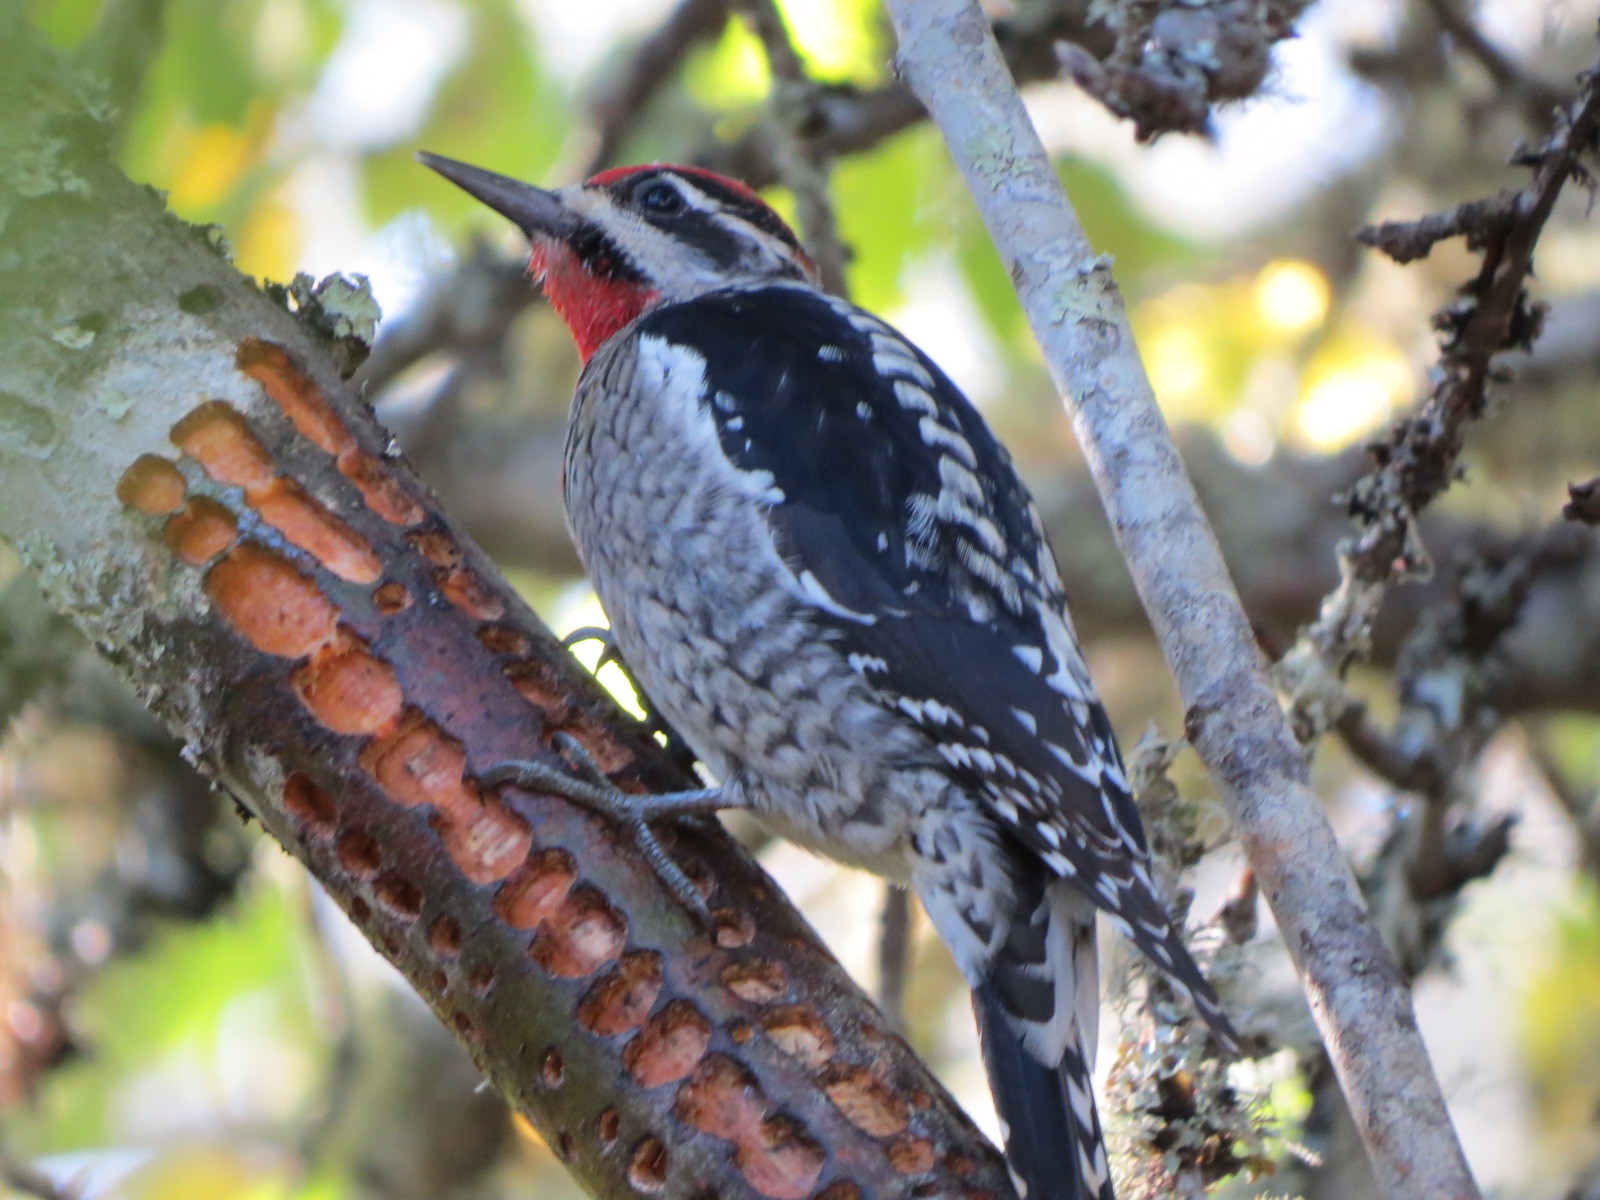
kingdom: Animalia
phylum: Chordata
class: Aves
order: Piciformes
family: Picidae
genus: Sphyrapicus
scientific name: Sphyrapicus nuchalis
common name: Red-naped sapsucker
